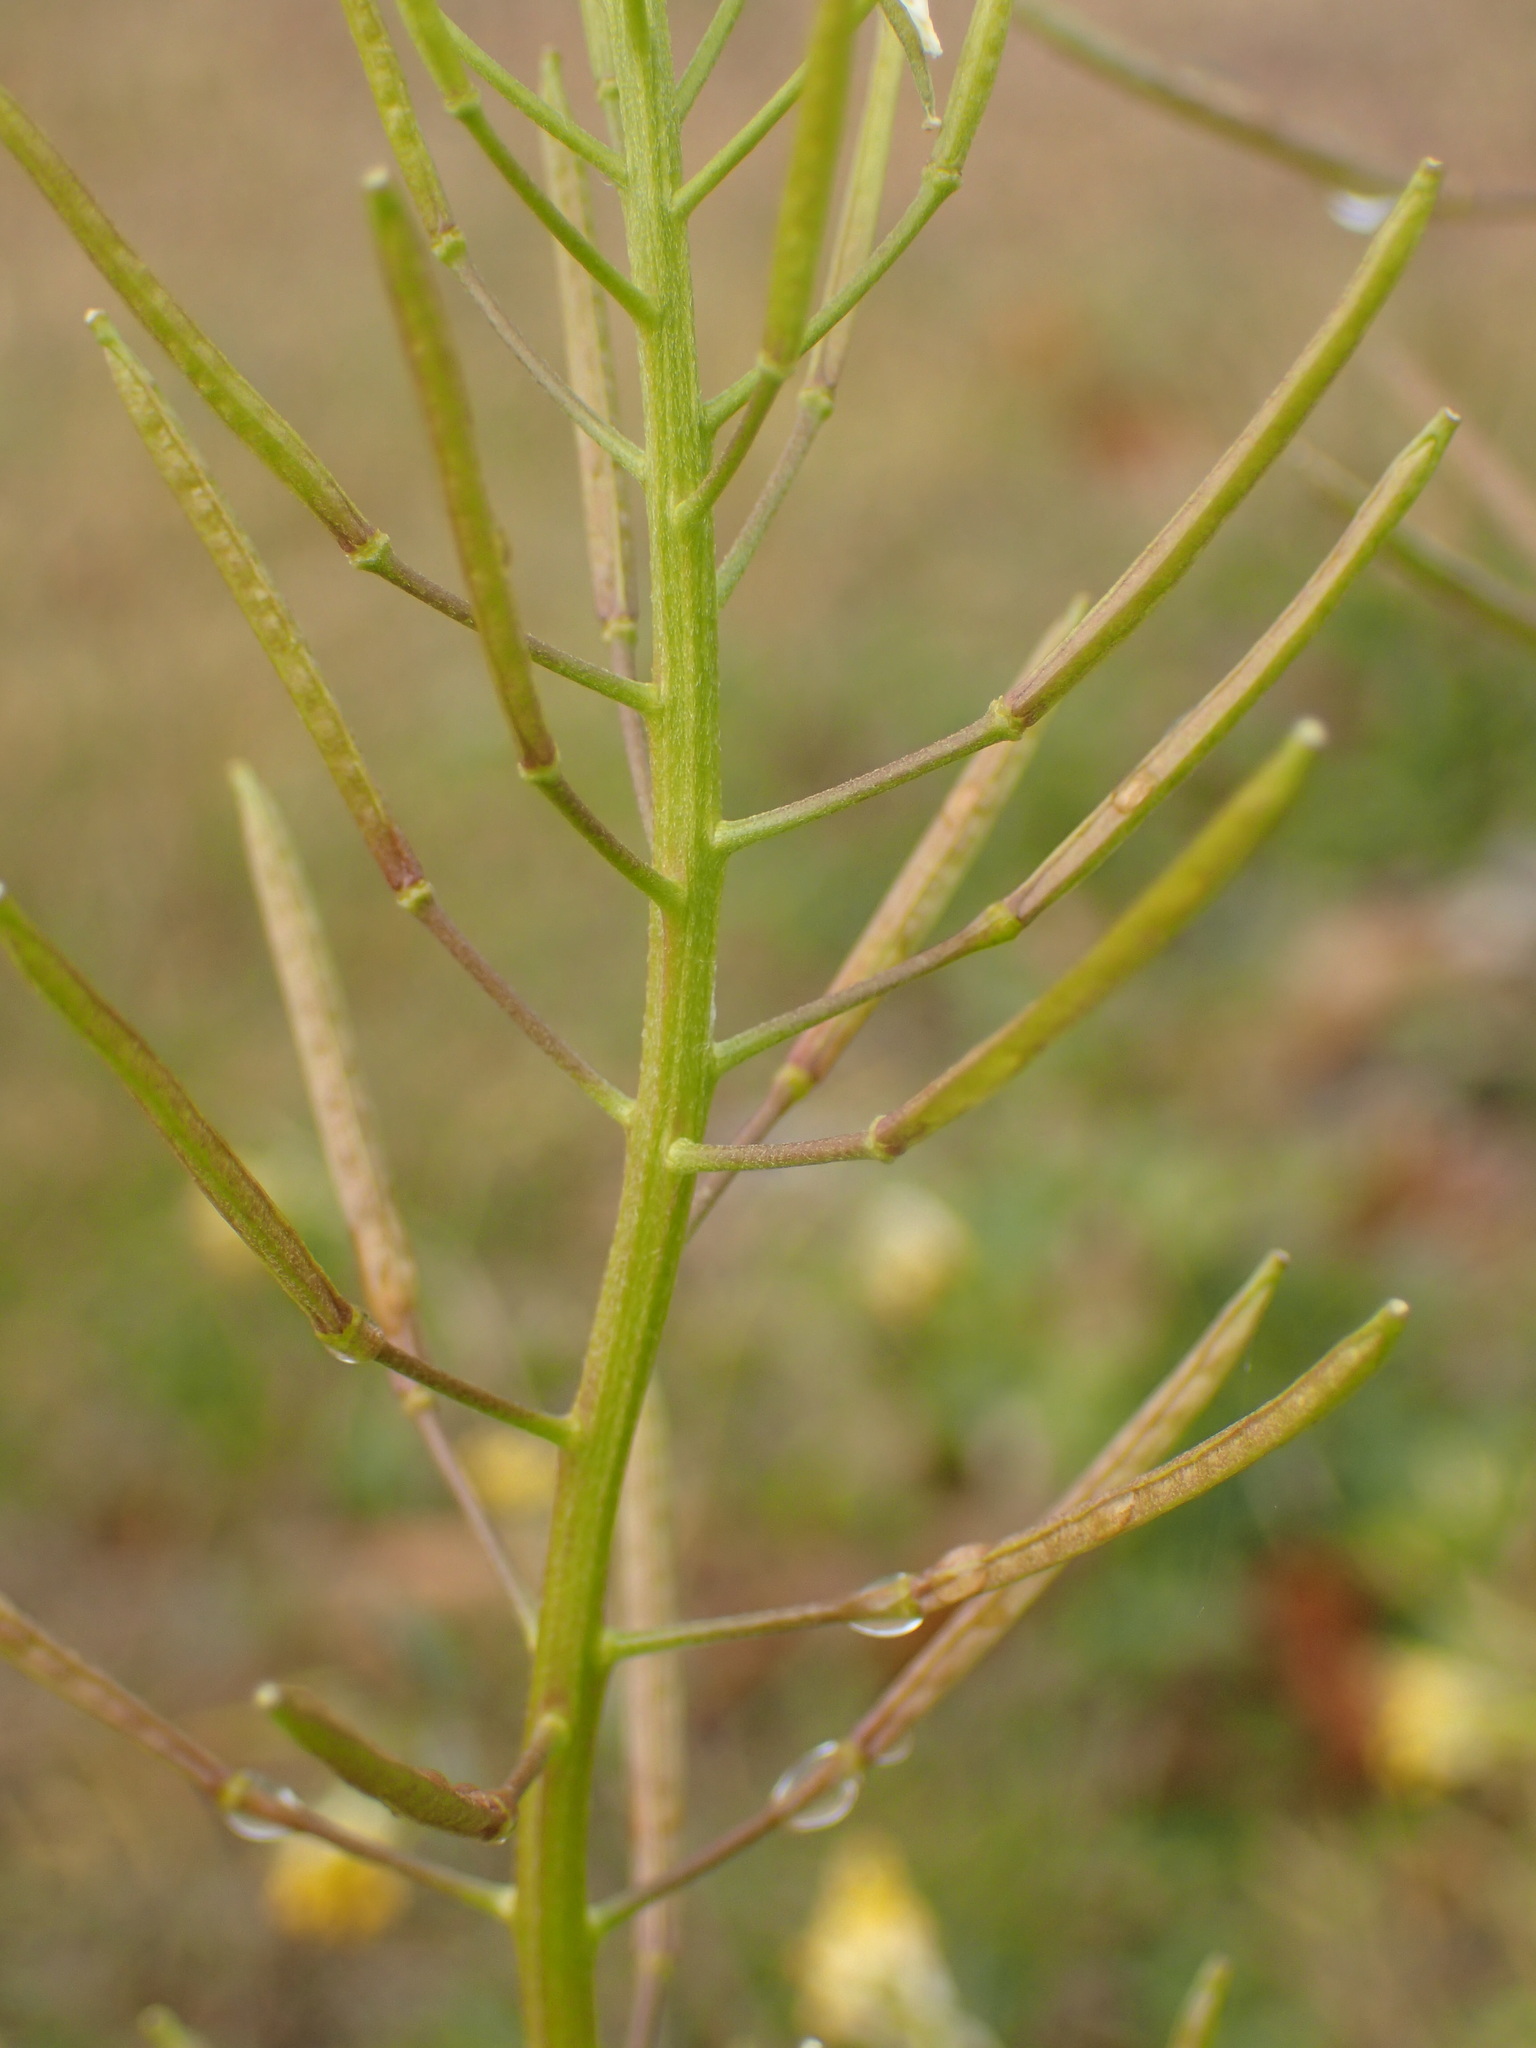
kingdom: Plantae
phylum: Tracheophyta
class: Magnoliopsida
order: Brassicales
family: Brassicaceae
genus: Erysimum
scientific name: Erysimum cheiranthoides
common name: Treacle mustard
